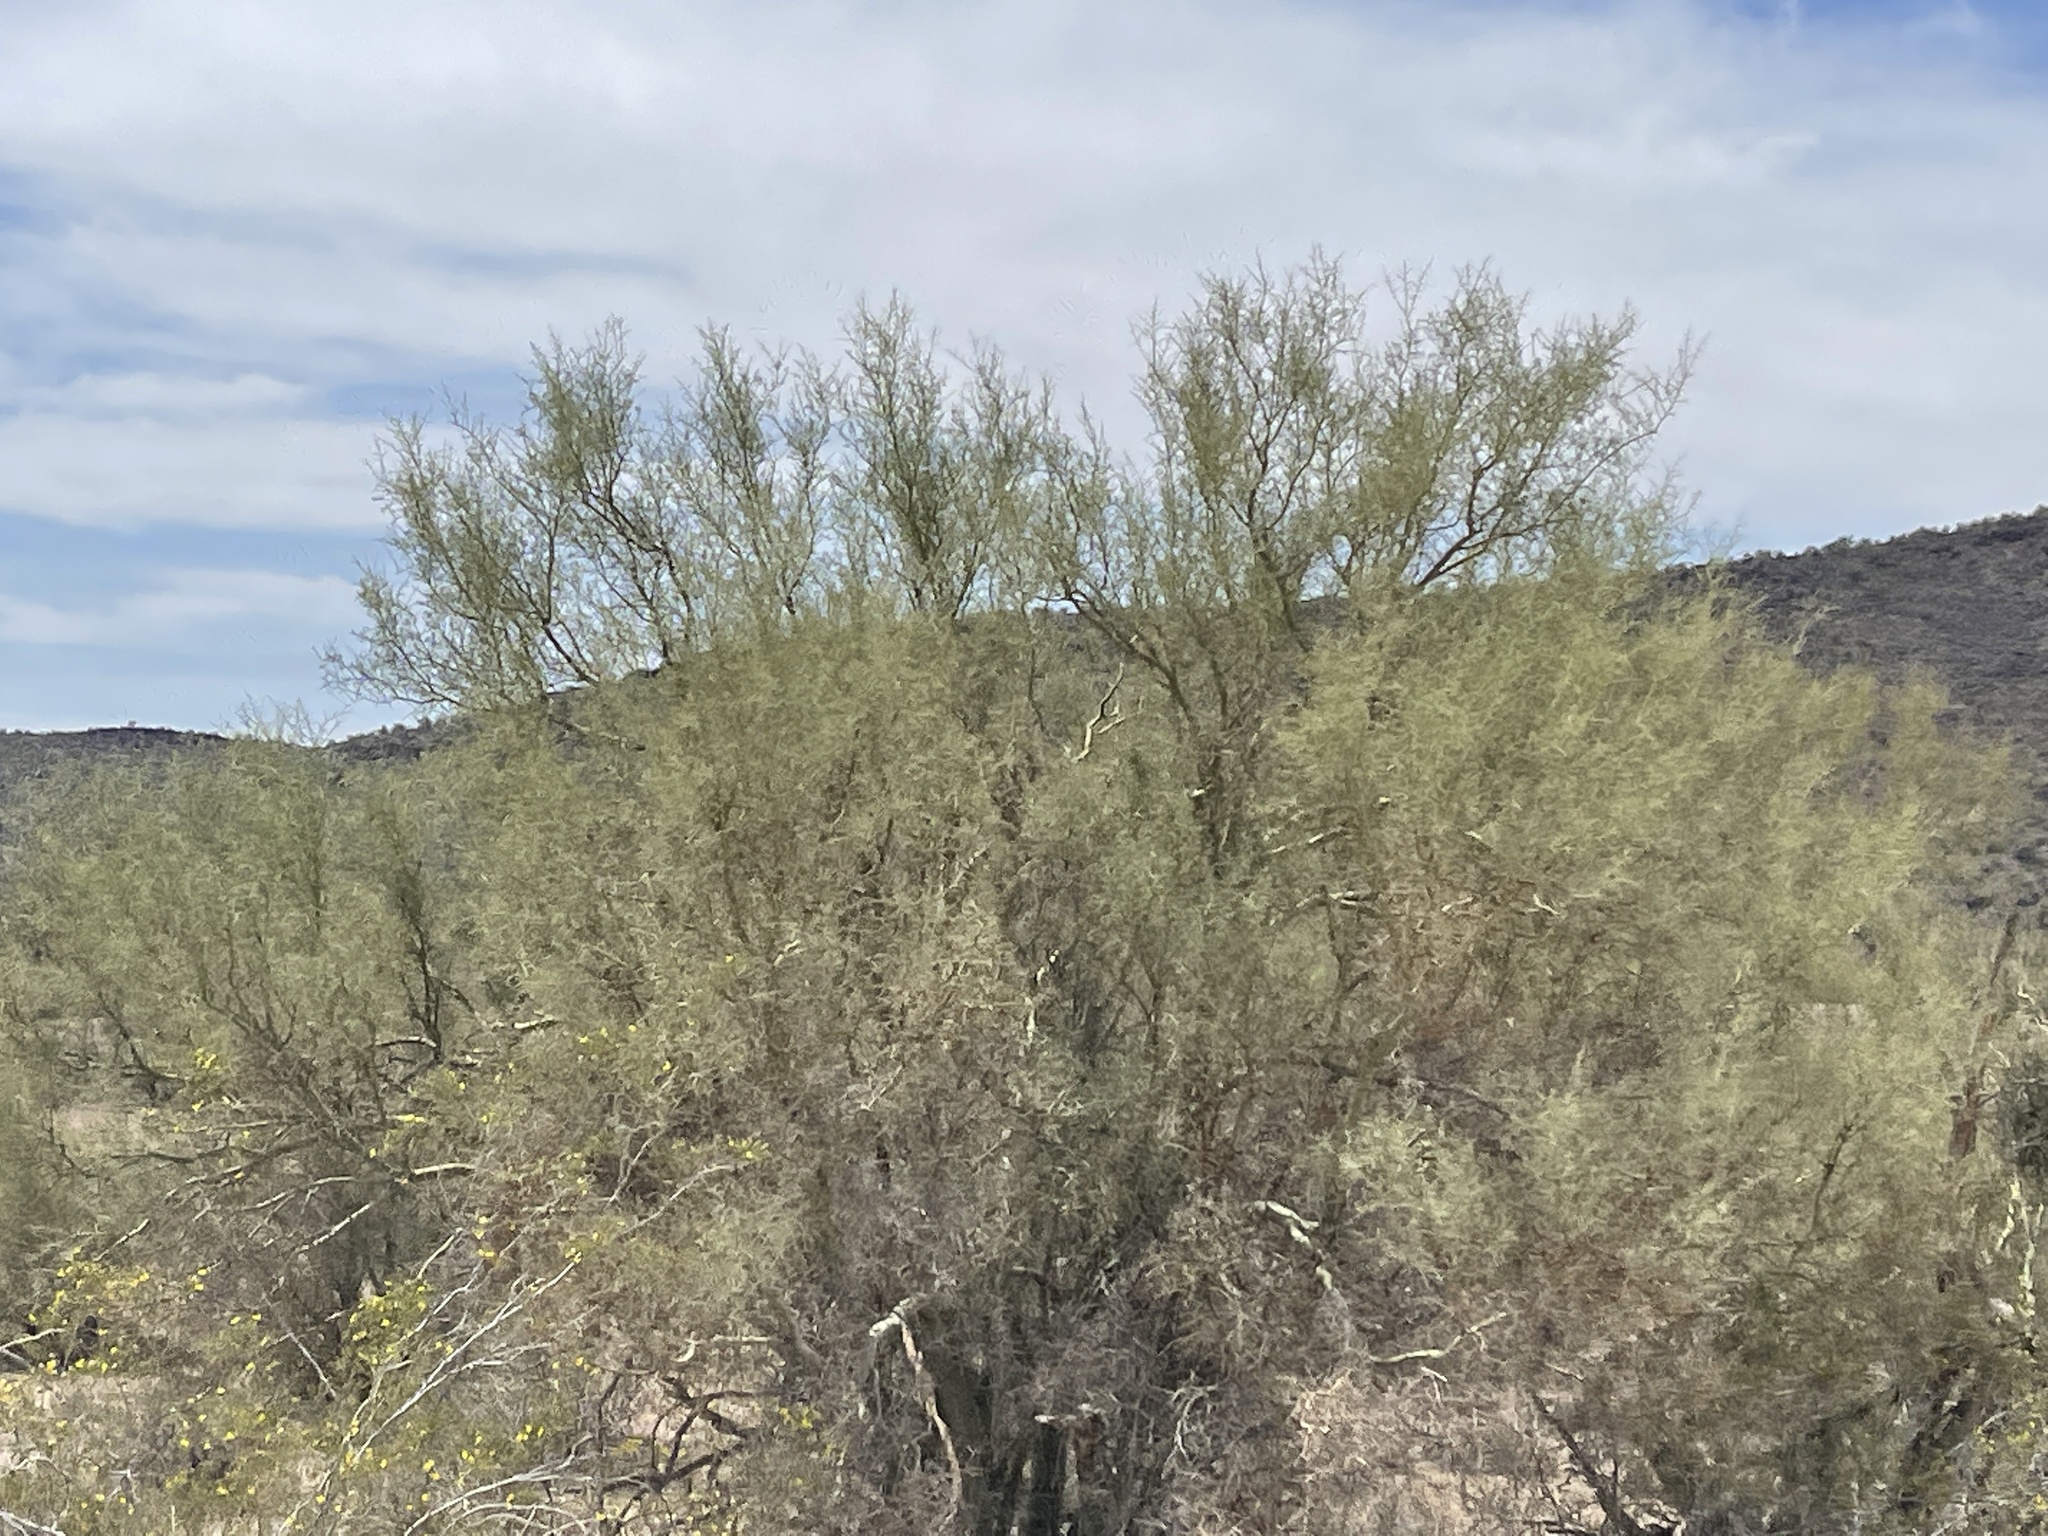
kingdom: Plantae
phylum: Tracheophyta
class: Magnoliopsida
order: Fabales
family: Fabaceae
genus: Parkinsonia
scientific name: Parkinsonia microphylla
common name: Yellow paloverde
